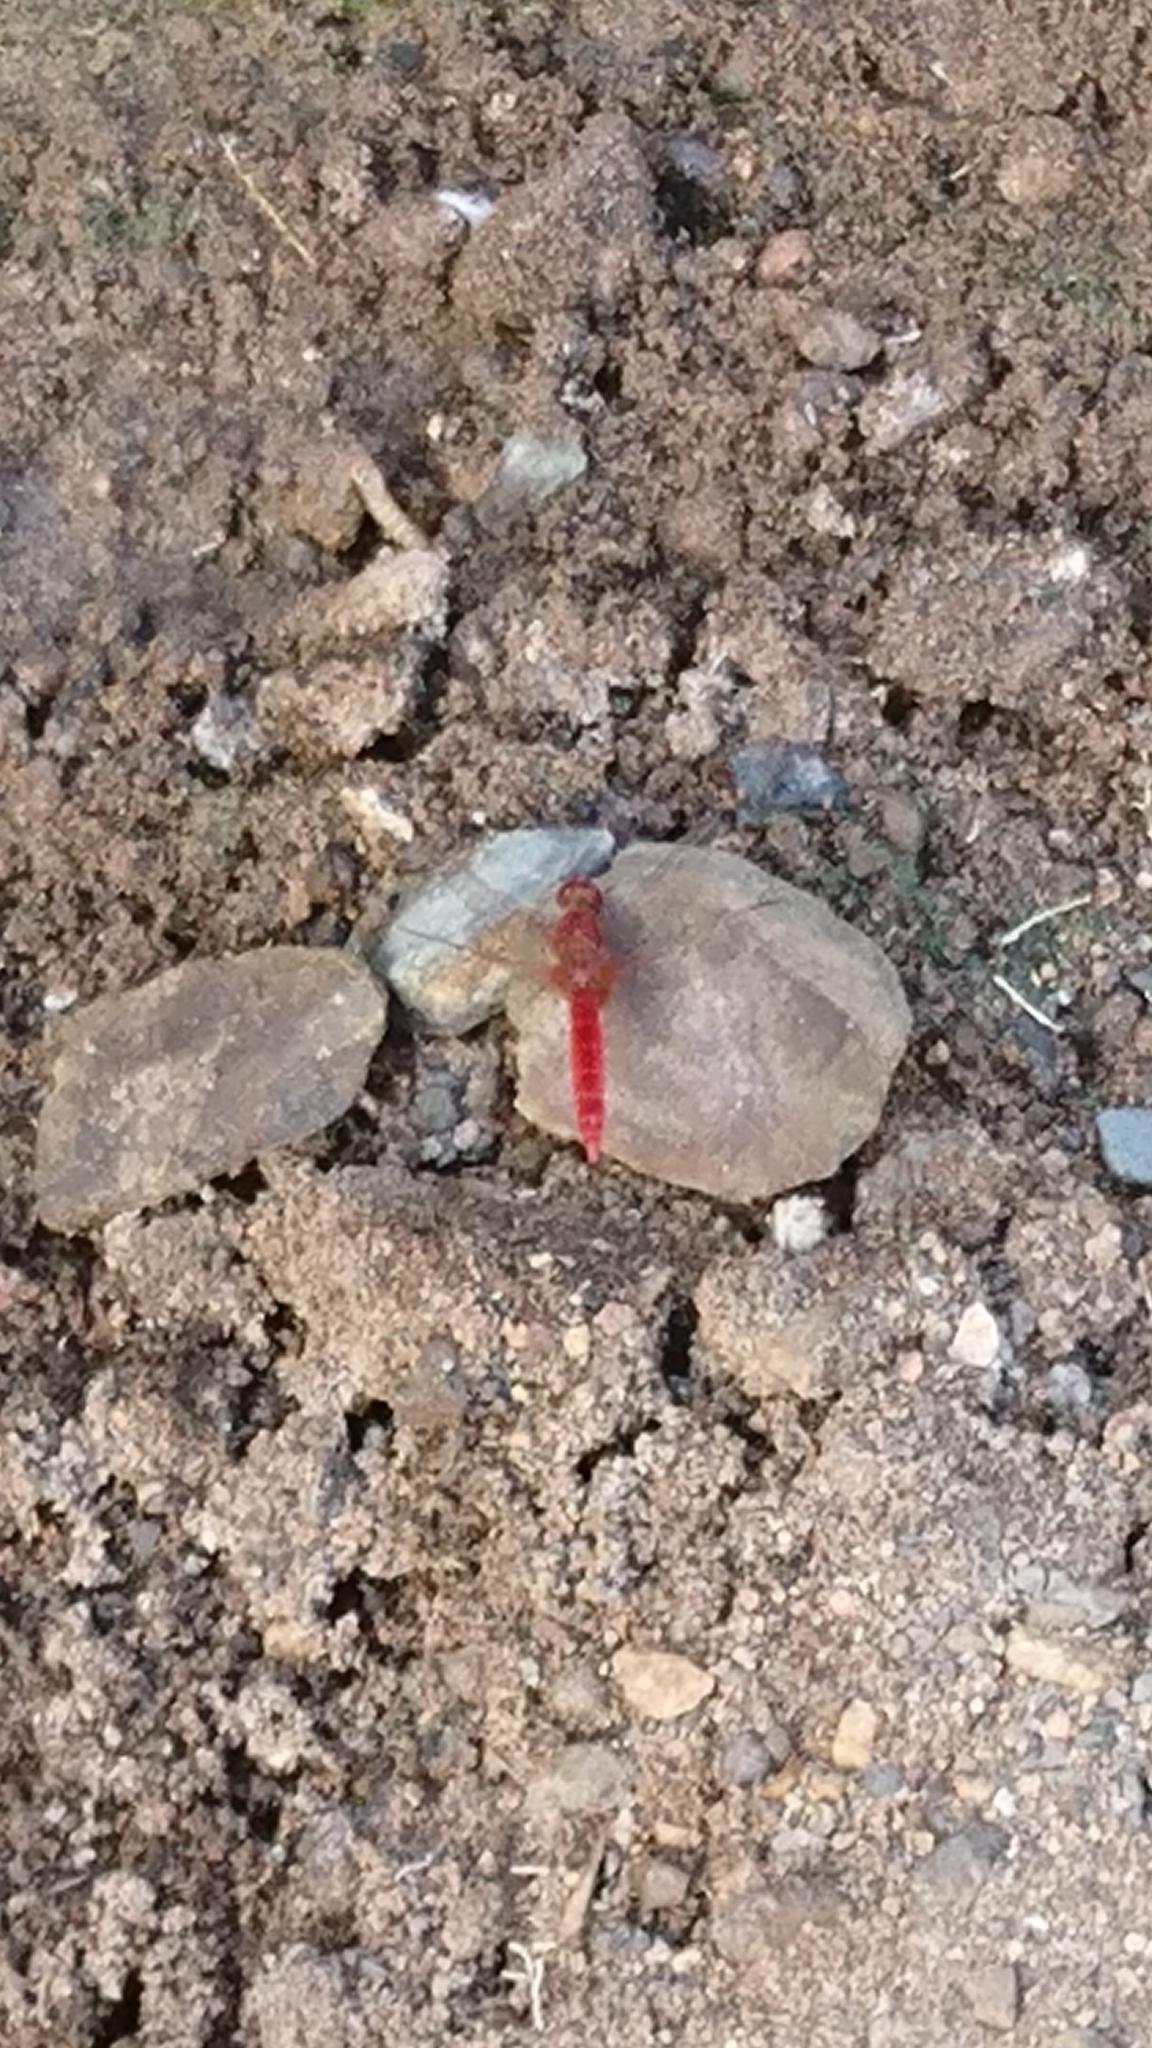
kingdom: Animalia
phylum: Arthropoda
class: Insecta
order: Odonata
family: Libellulidae
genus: Crocothemis
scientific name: Crocothemis erythraea
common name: Scarlet dragonfly
